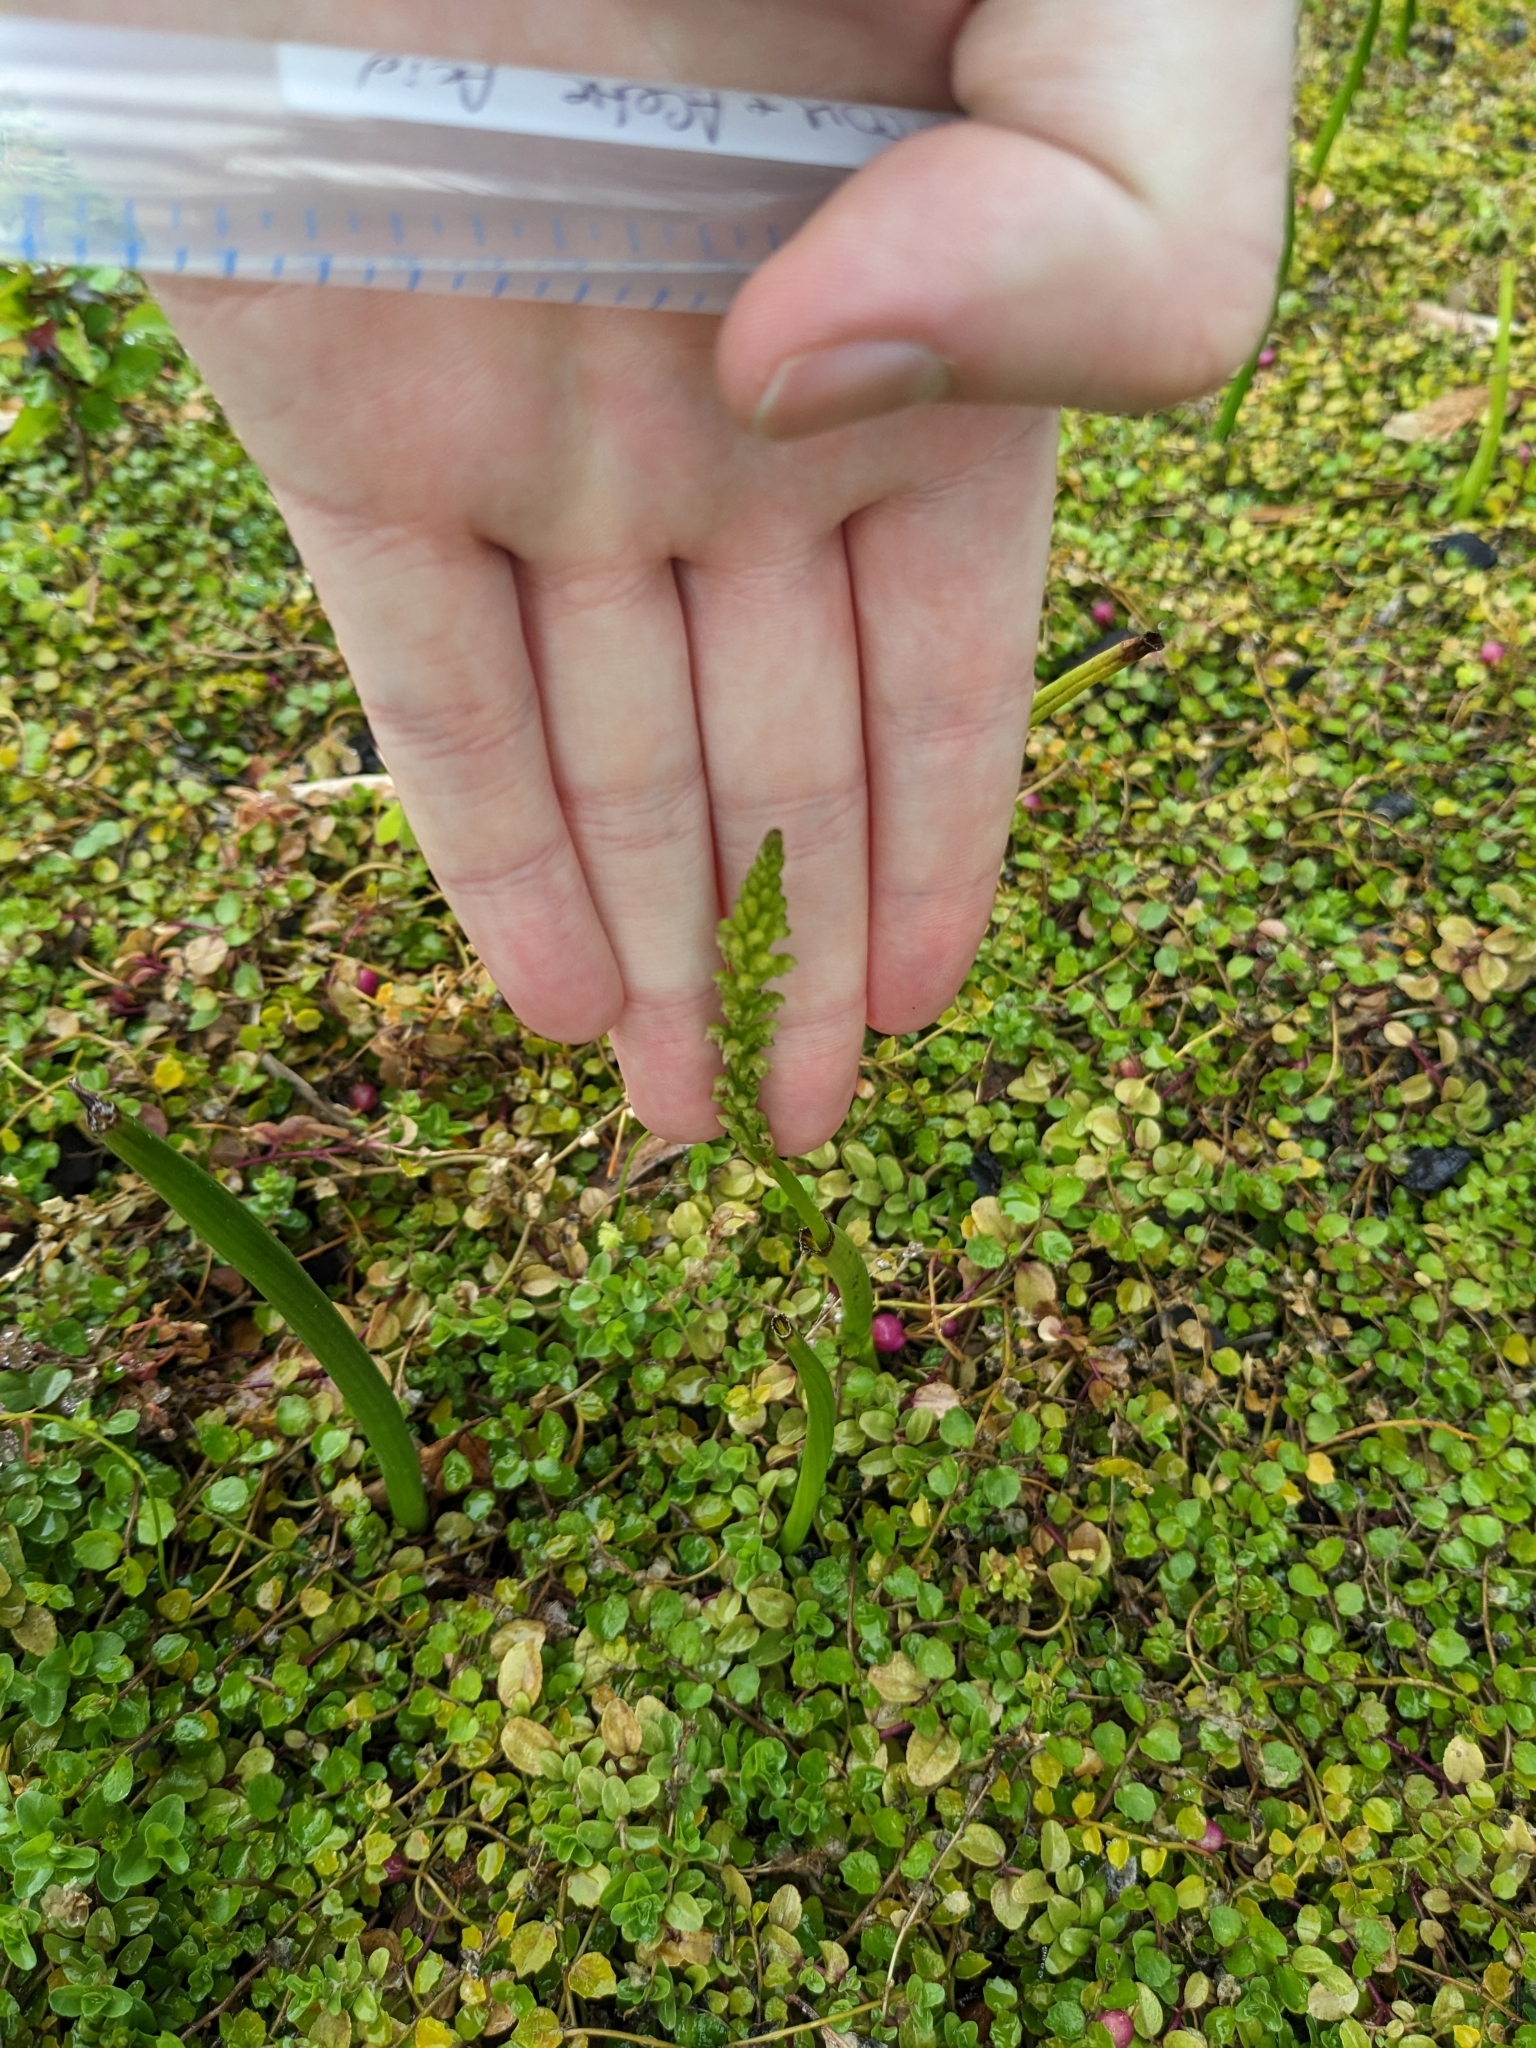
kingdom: Plantae
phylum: Tracheophyta
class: Liliopsida
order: Asparagales
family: Orchidaceae
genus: Microtis
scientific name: Microtis unifolia
